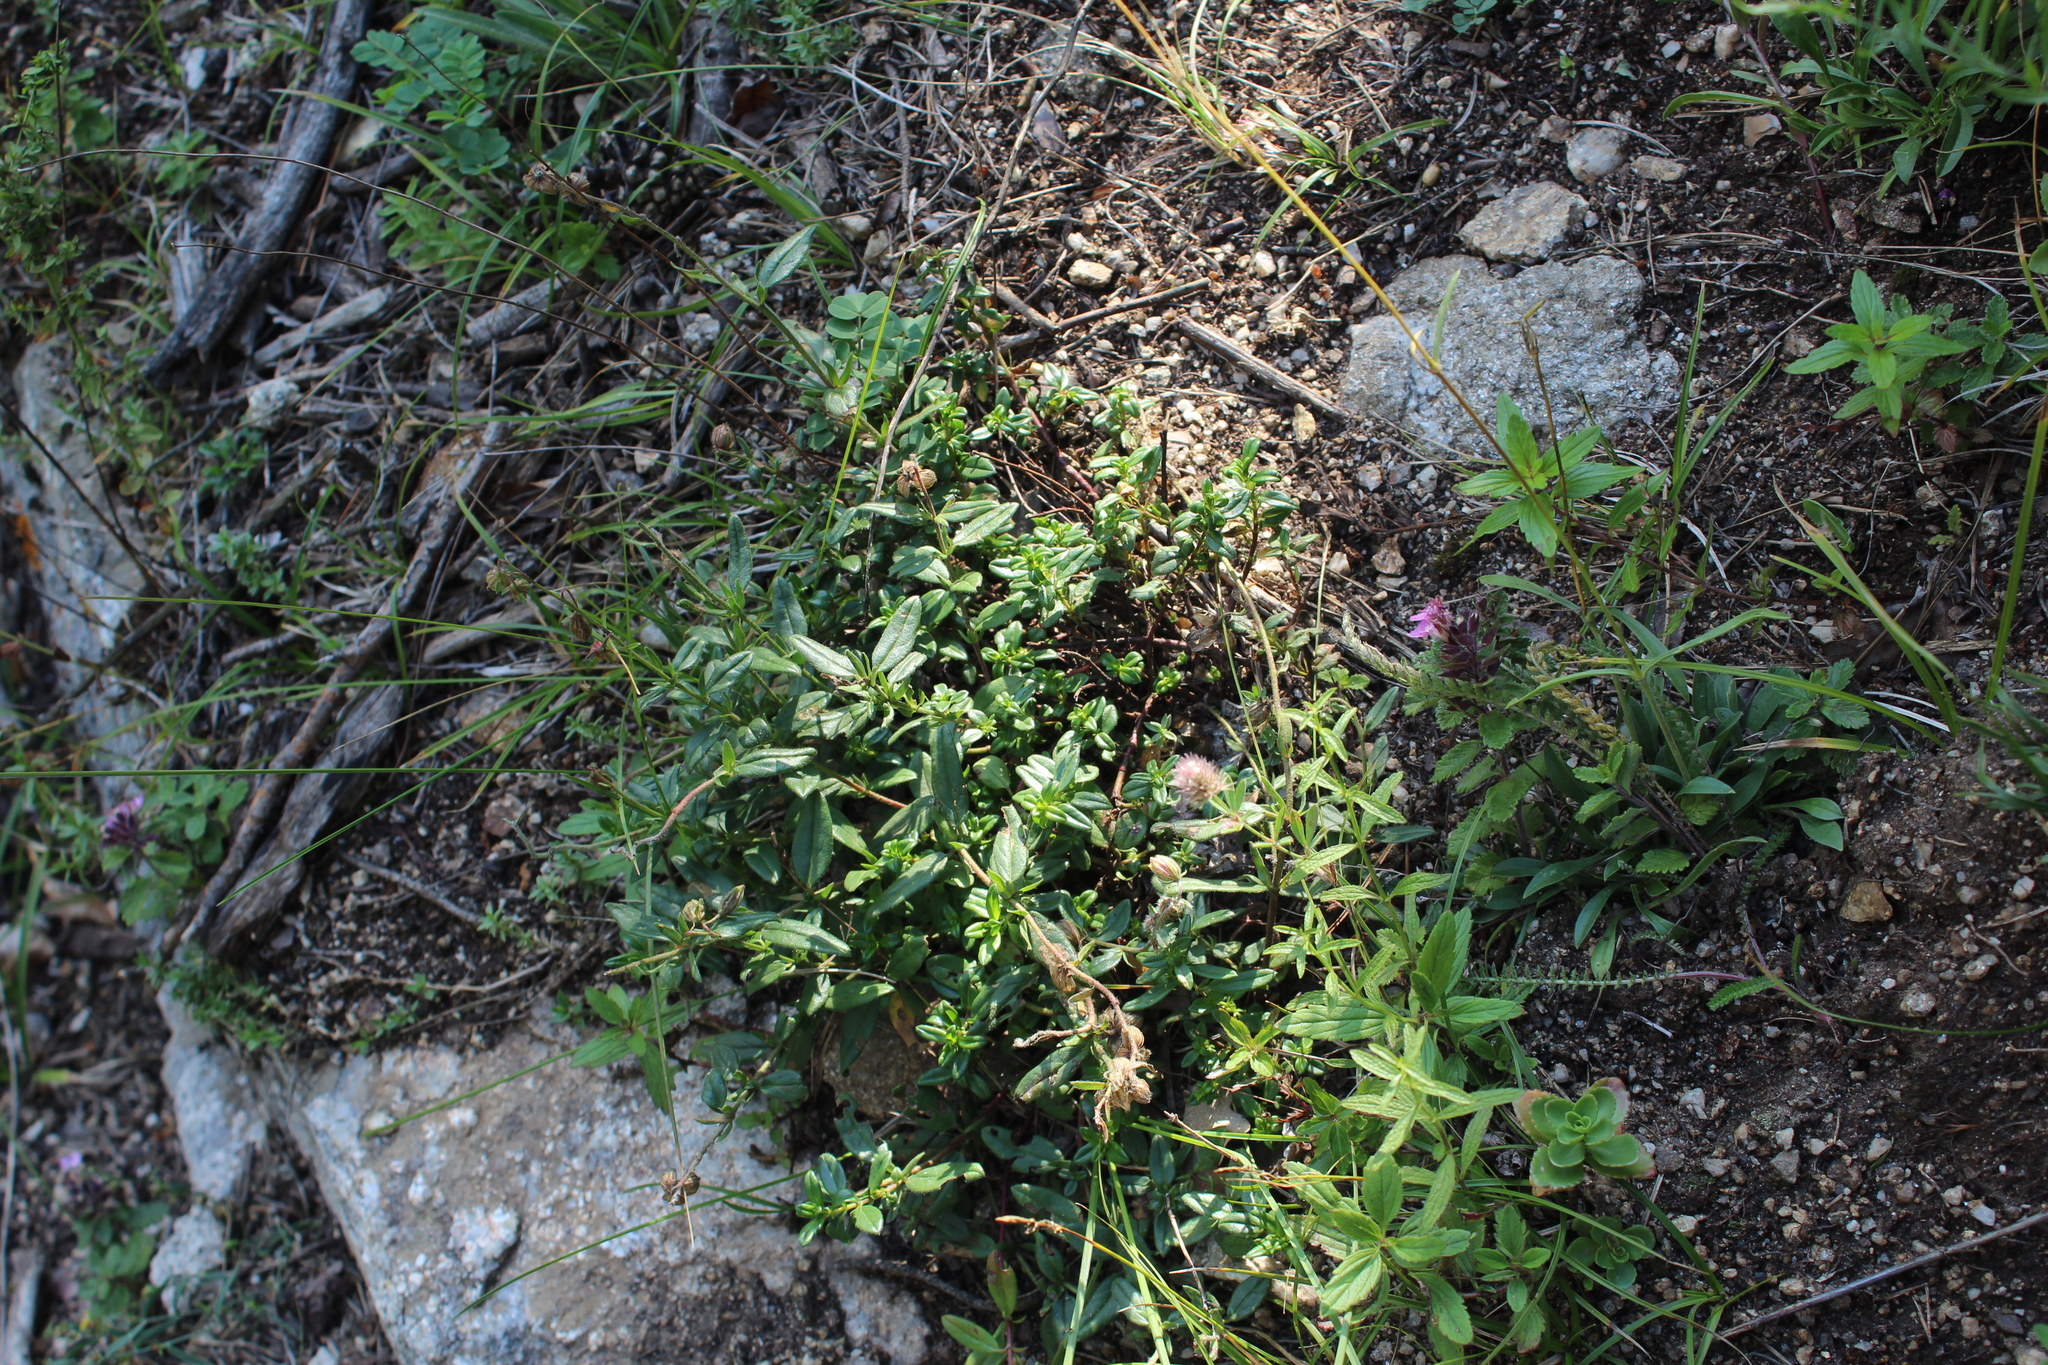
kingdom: Plantae
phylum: Tracheophyta
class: Magnoliopsida
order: Malvales
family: Cistaceae
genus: Helianthemum
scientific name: Helianthemum nummularium
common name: Common rock-rose
